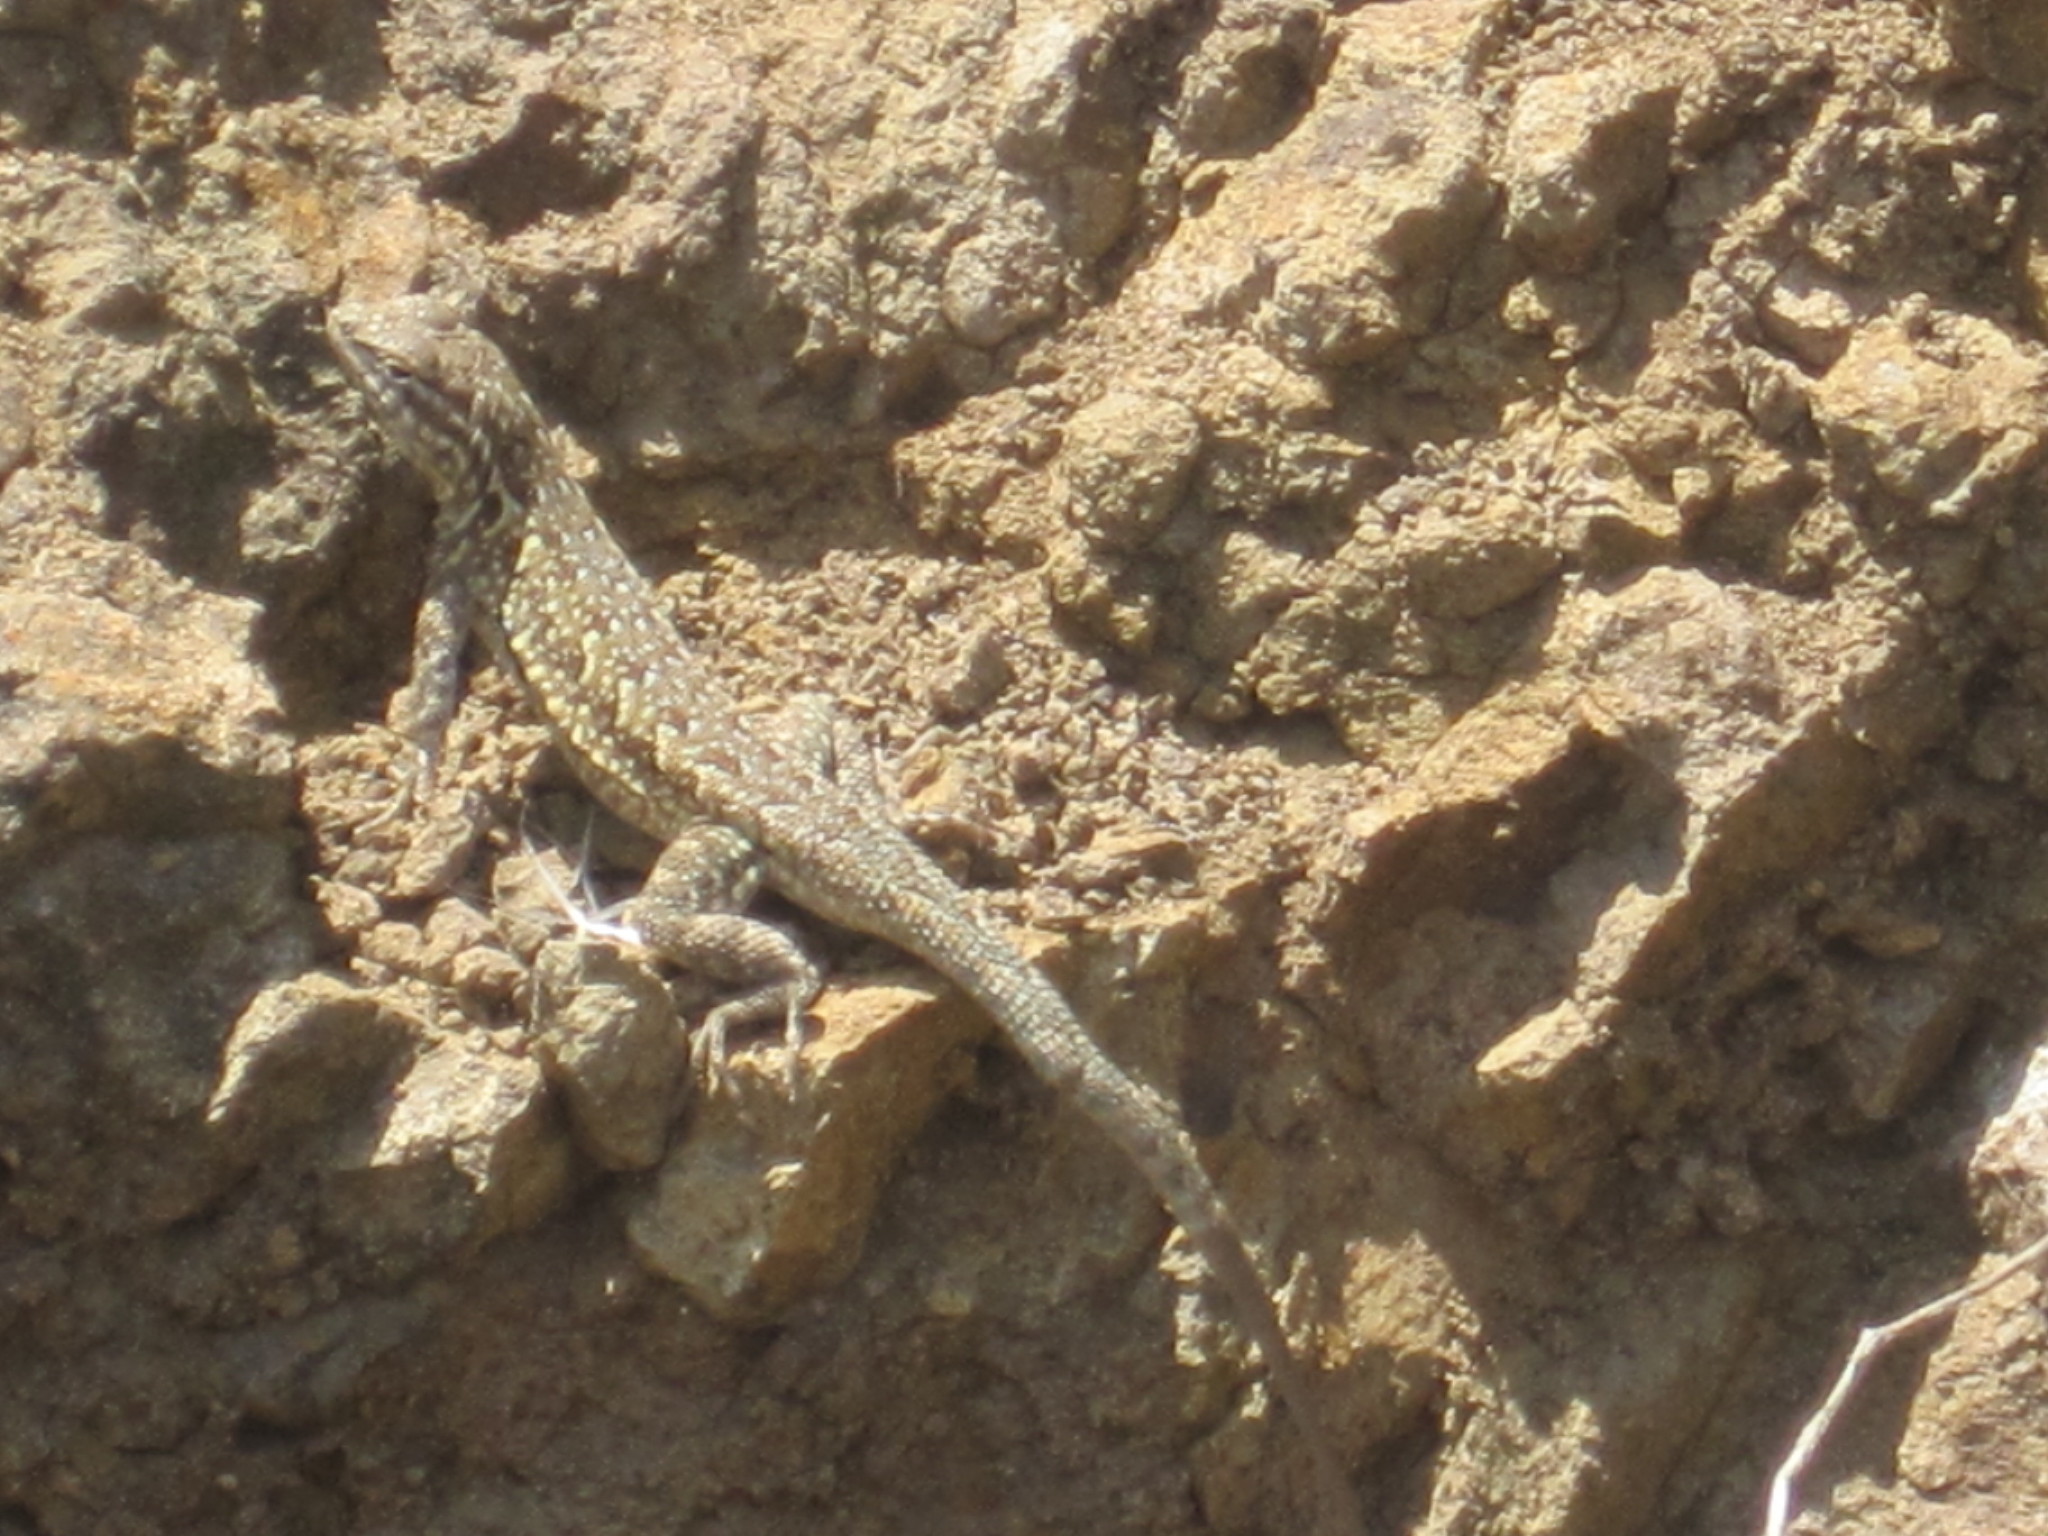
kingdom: Animalia
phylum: Chordata
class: Squamata
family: Phrynosomatidae
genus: Uta
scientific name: Uta stansburiana
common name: Side-blotched lizard
